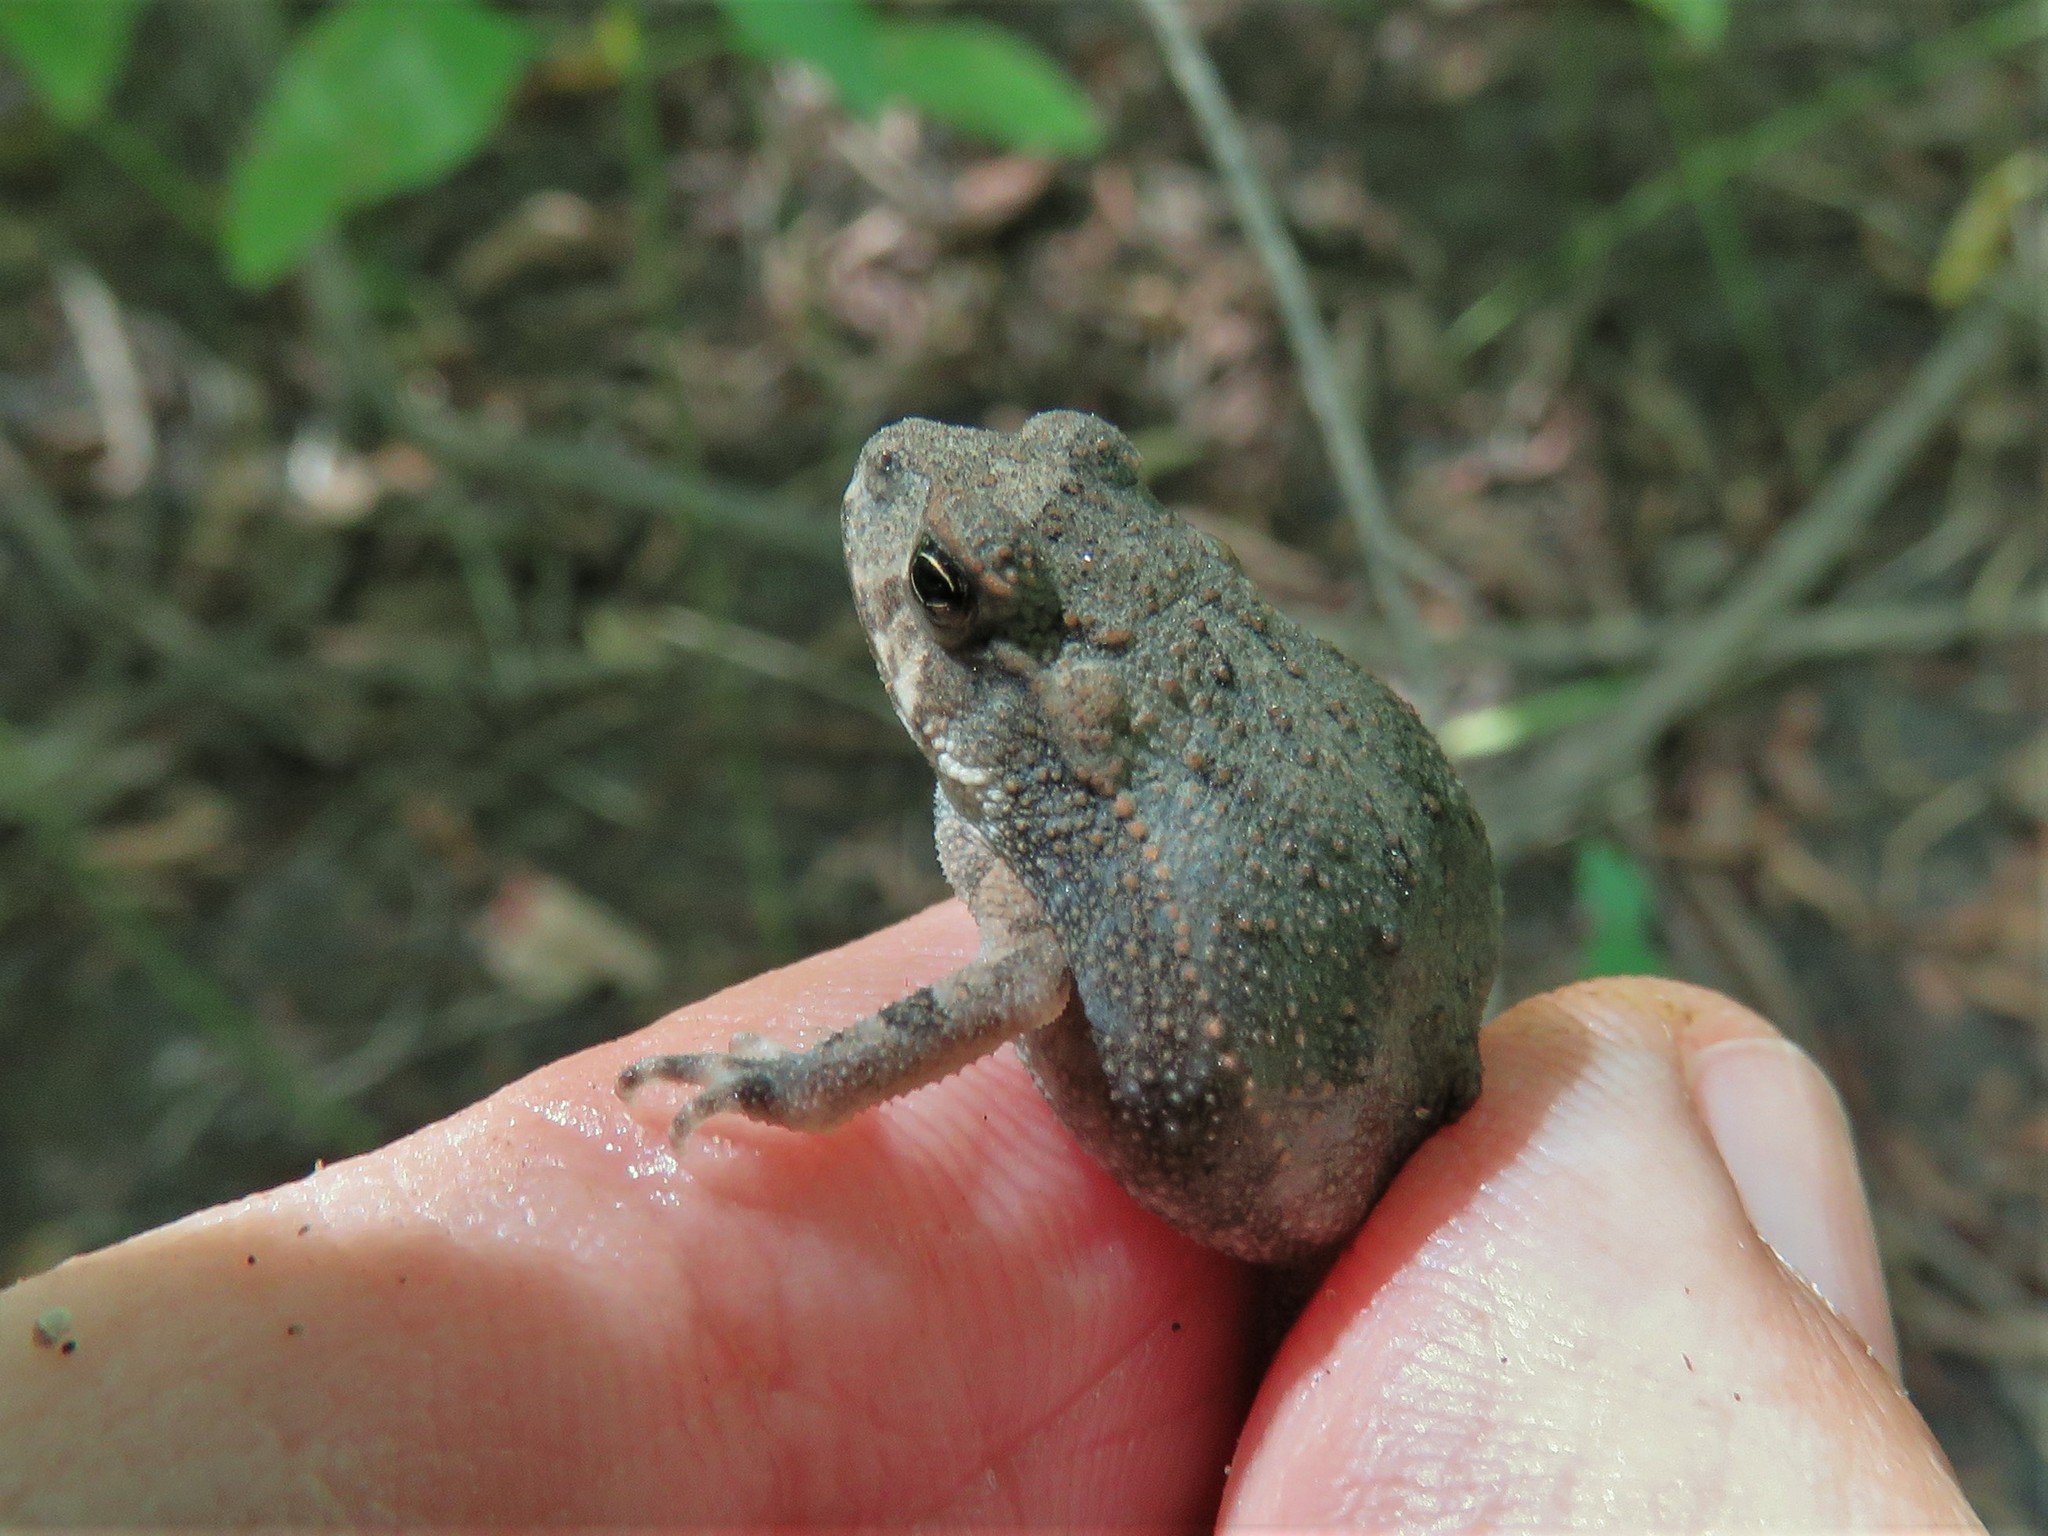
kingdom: Animalia
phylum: Chordata
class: Amphibia
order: Anura
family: Bufonidae
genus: Incilius
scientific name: Incilius nebulifer
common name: Gulf coast toad
